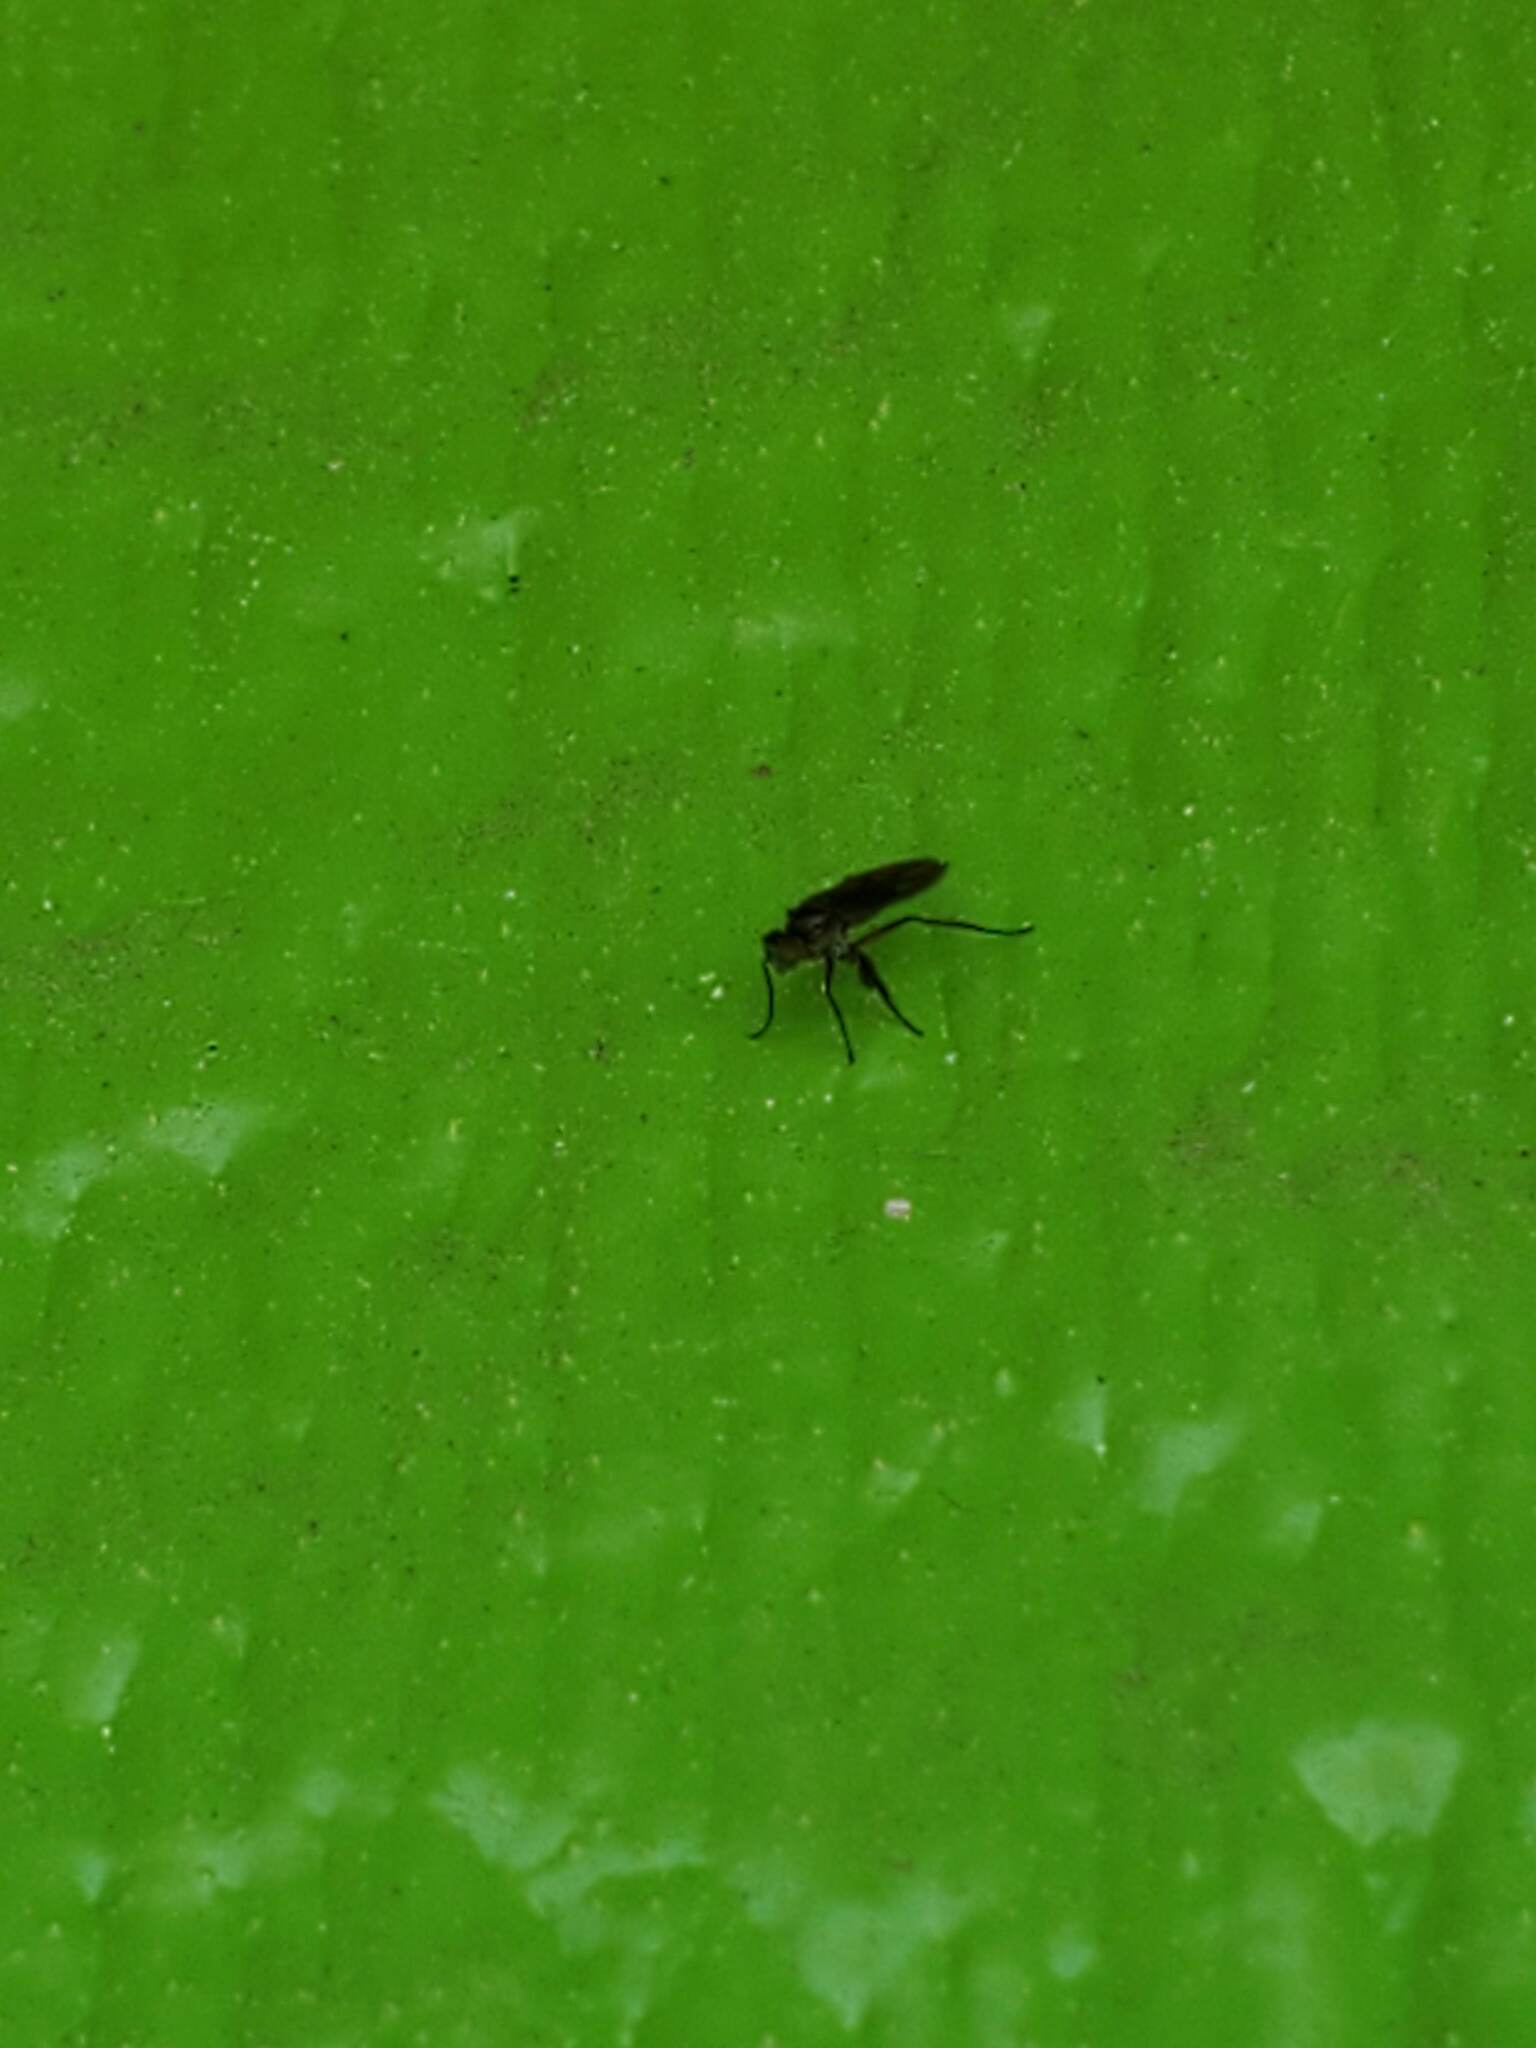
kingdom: Animalia
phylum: Arthropoda
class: Insecta
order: Diptera
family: Dolichopodidae
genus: Campsicnemus
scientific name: Campsicnemus
